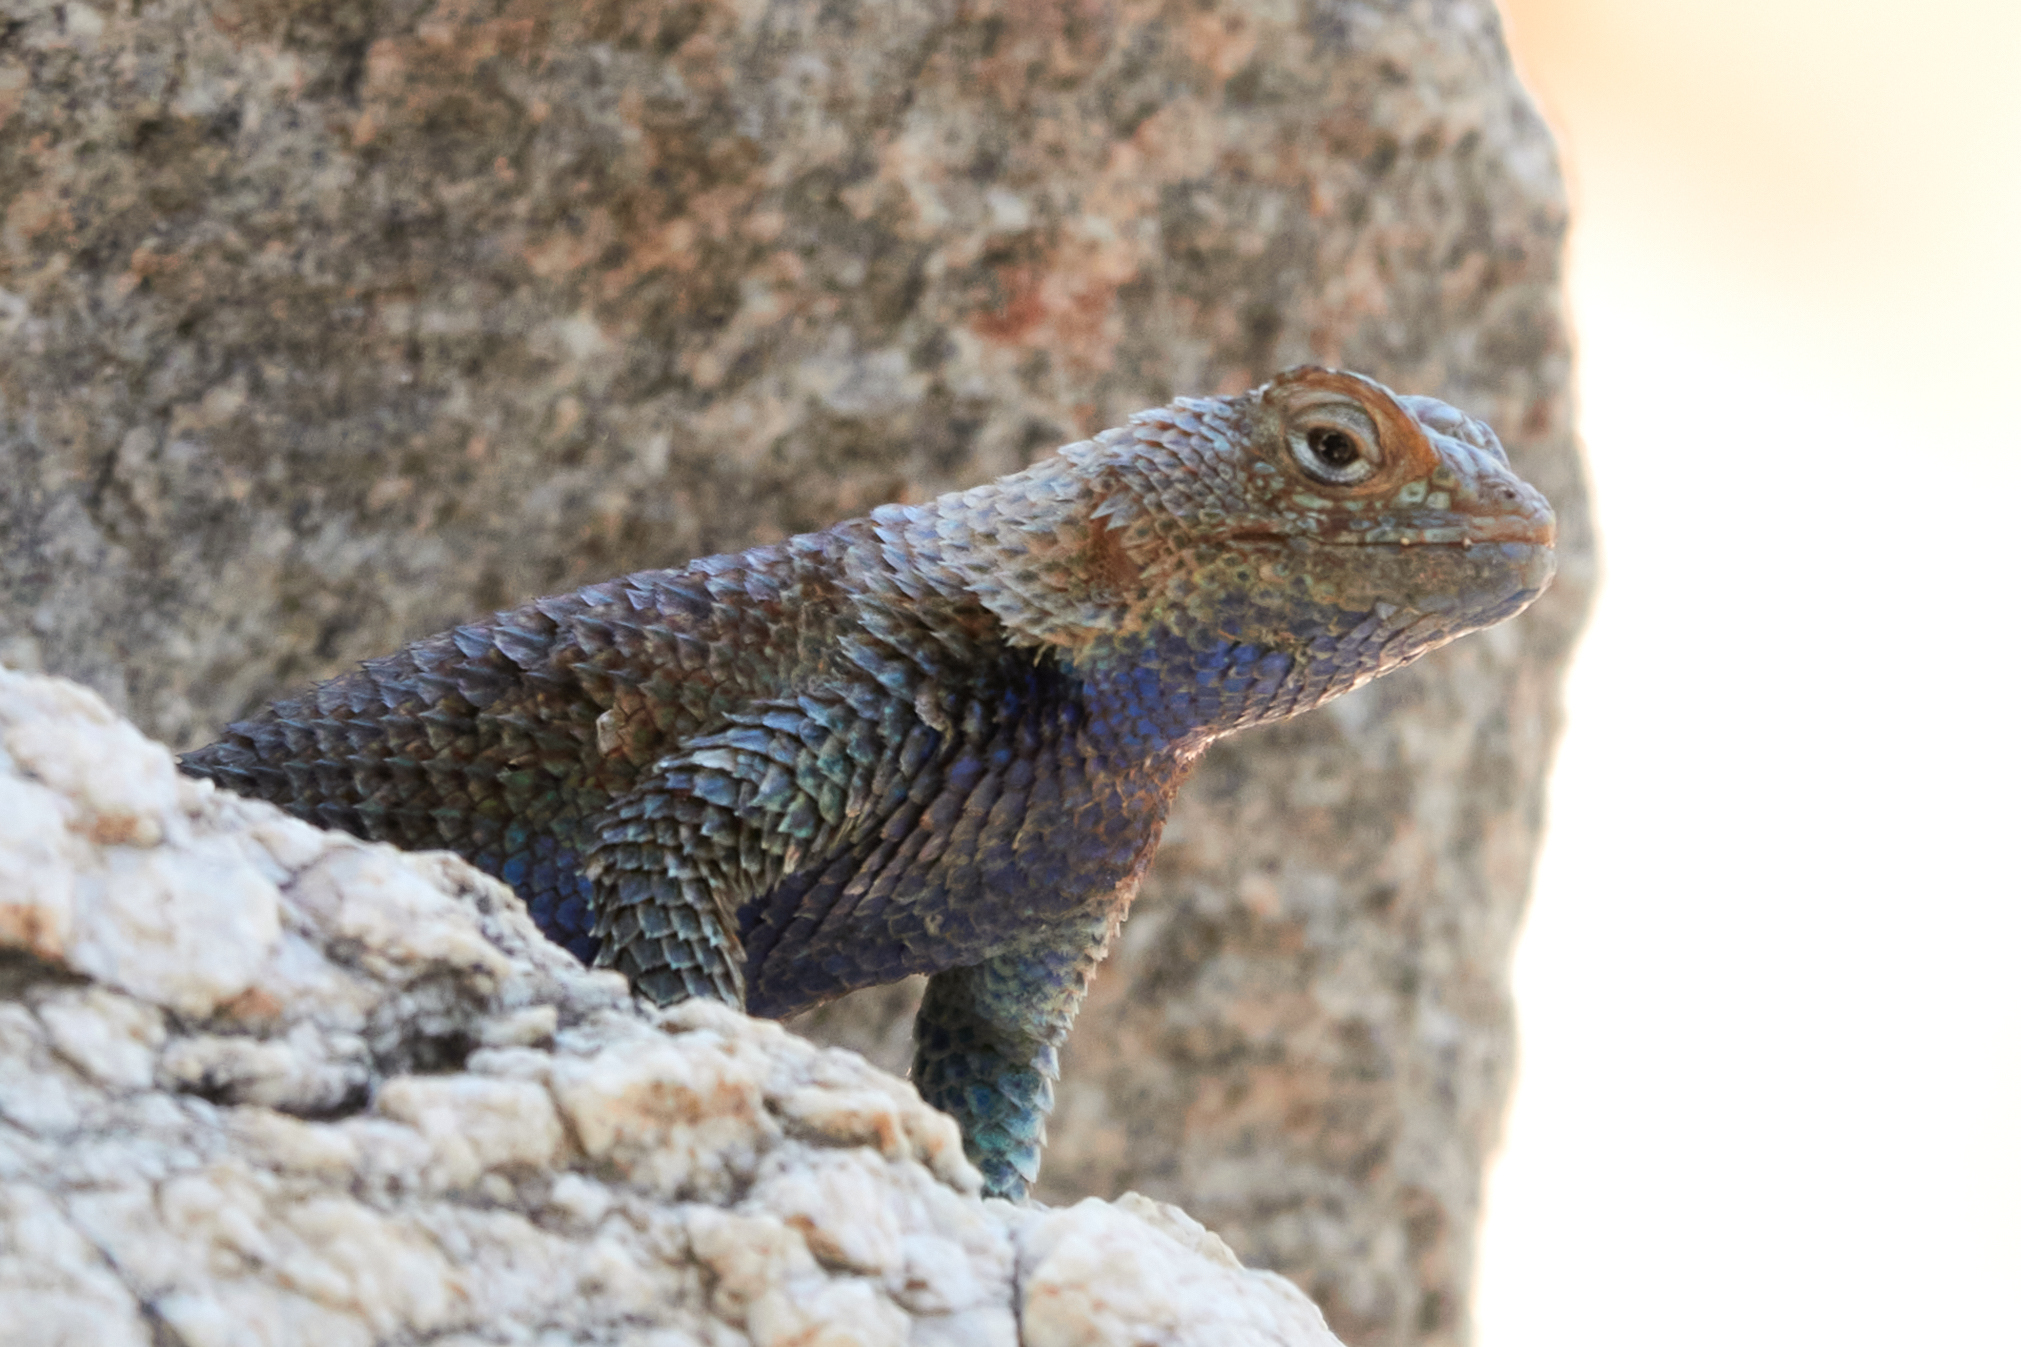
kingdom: Animalia
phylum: Chordata
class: Squamata
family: Phrynosomatidae
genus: Sceloporus
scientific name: Sceloporus orcutti
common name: Granite spiny lizard
